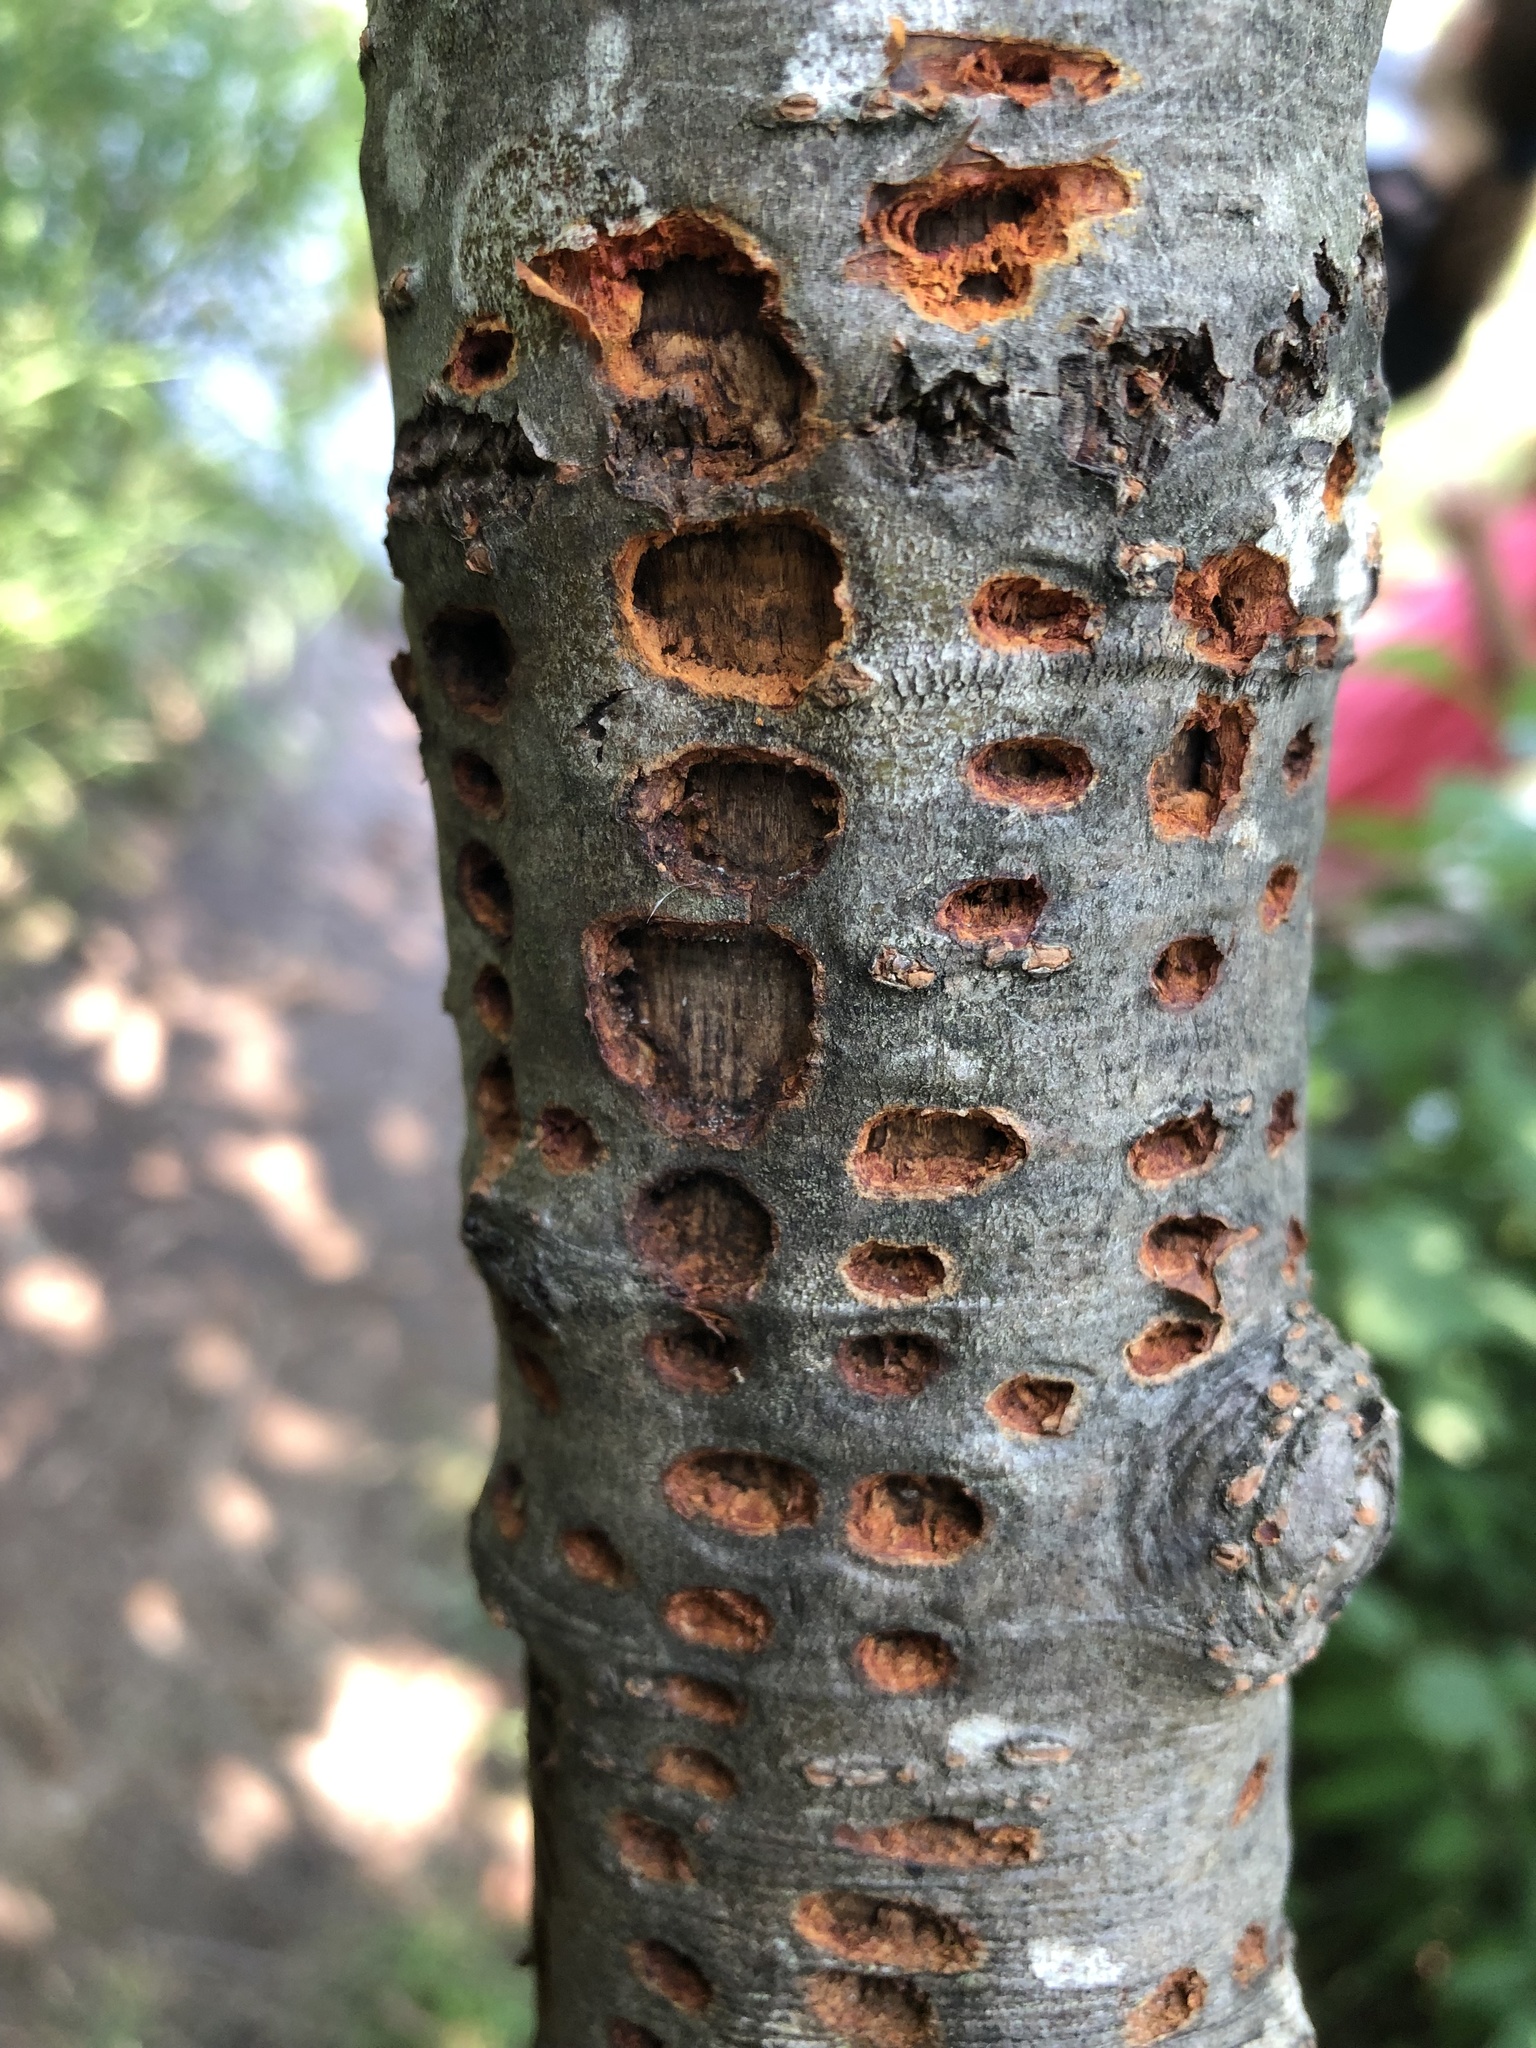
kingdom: Animalia
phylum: Chordata
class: Aves
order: Piciformes
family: Picidae
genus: Sphyrapicus
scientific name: Sphyrapicus varius
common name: Yellow-bellied sapsucker
